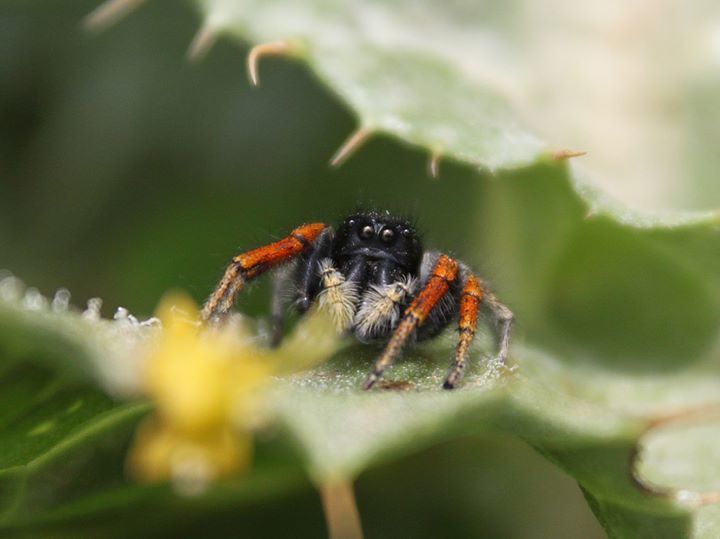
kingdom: Animalia
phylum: Arthropoda
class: Arachnida
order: Araneae
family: Salticidae
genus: Philaeus
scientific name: Philaeus chrysops
